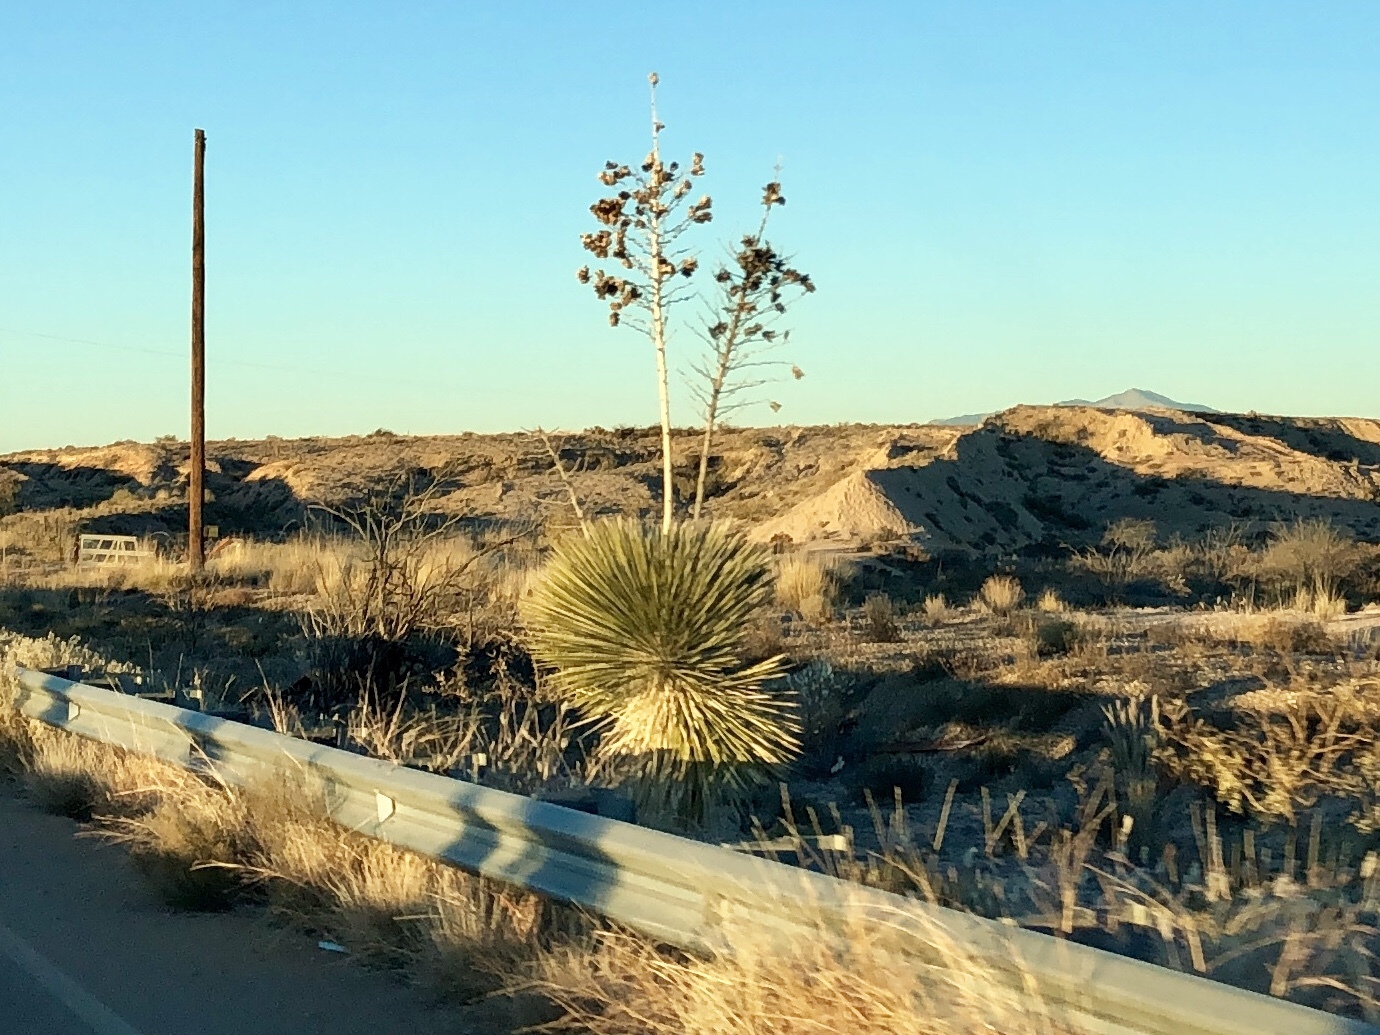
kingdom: Plantae
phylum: Tracheophyta
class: Liliopsida
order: Asparagales
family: Asparagaceae
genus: Yucca
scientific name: Yucca elata
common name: Palmella
